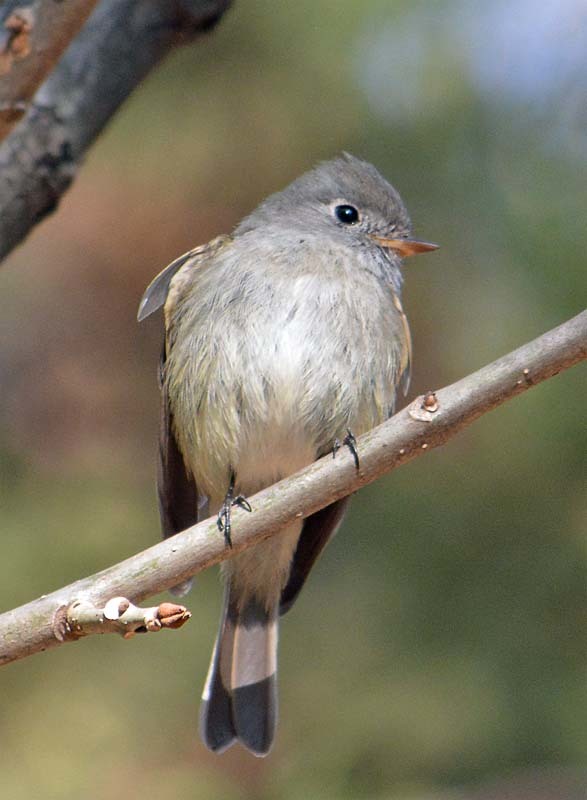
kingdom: Animalia
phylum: Chordata
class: Aves
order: Passeriformes
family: Tyrannidae
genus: Empidonax
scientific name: Empidonax hammondii
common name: Hammond's flycatcher
